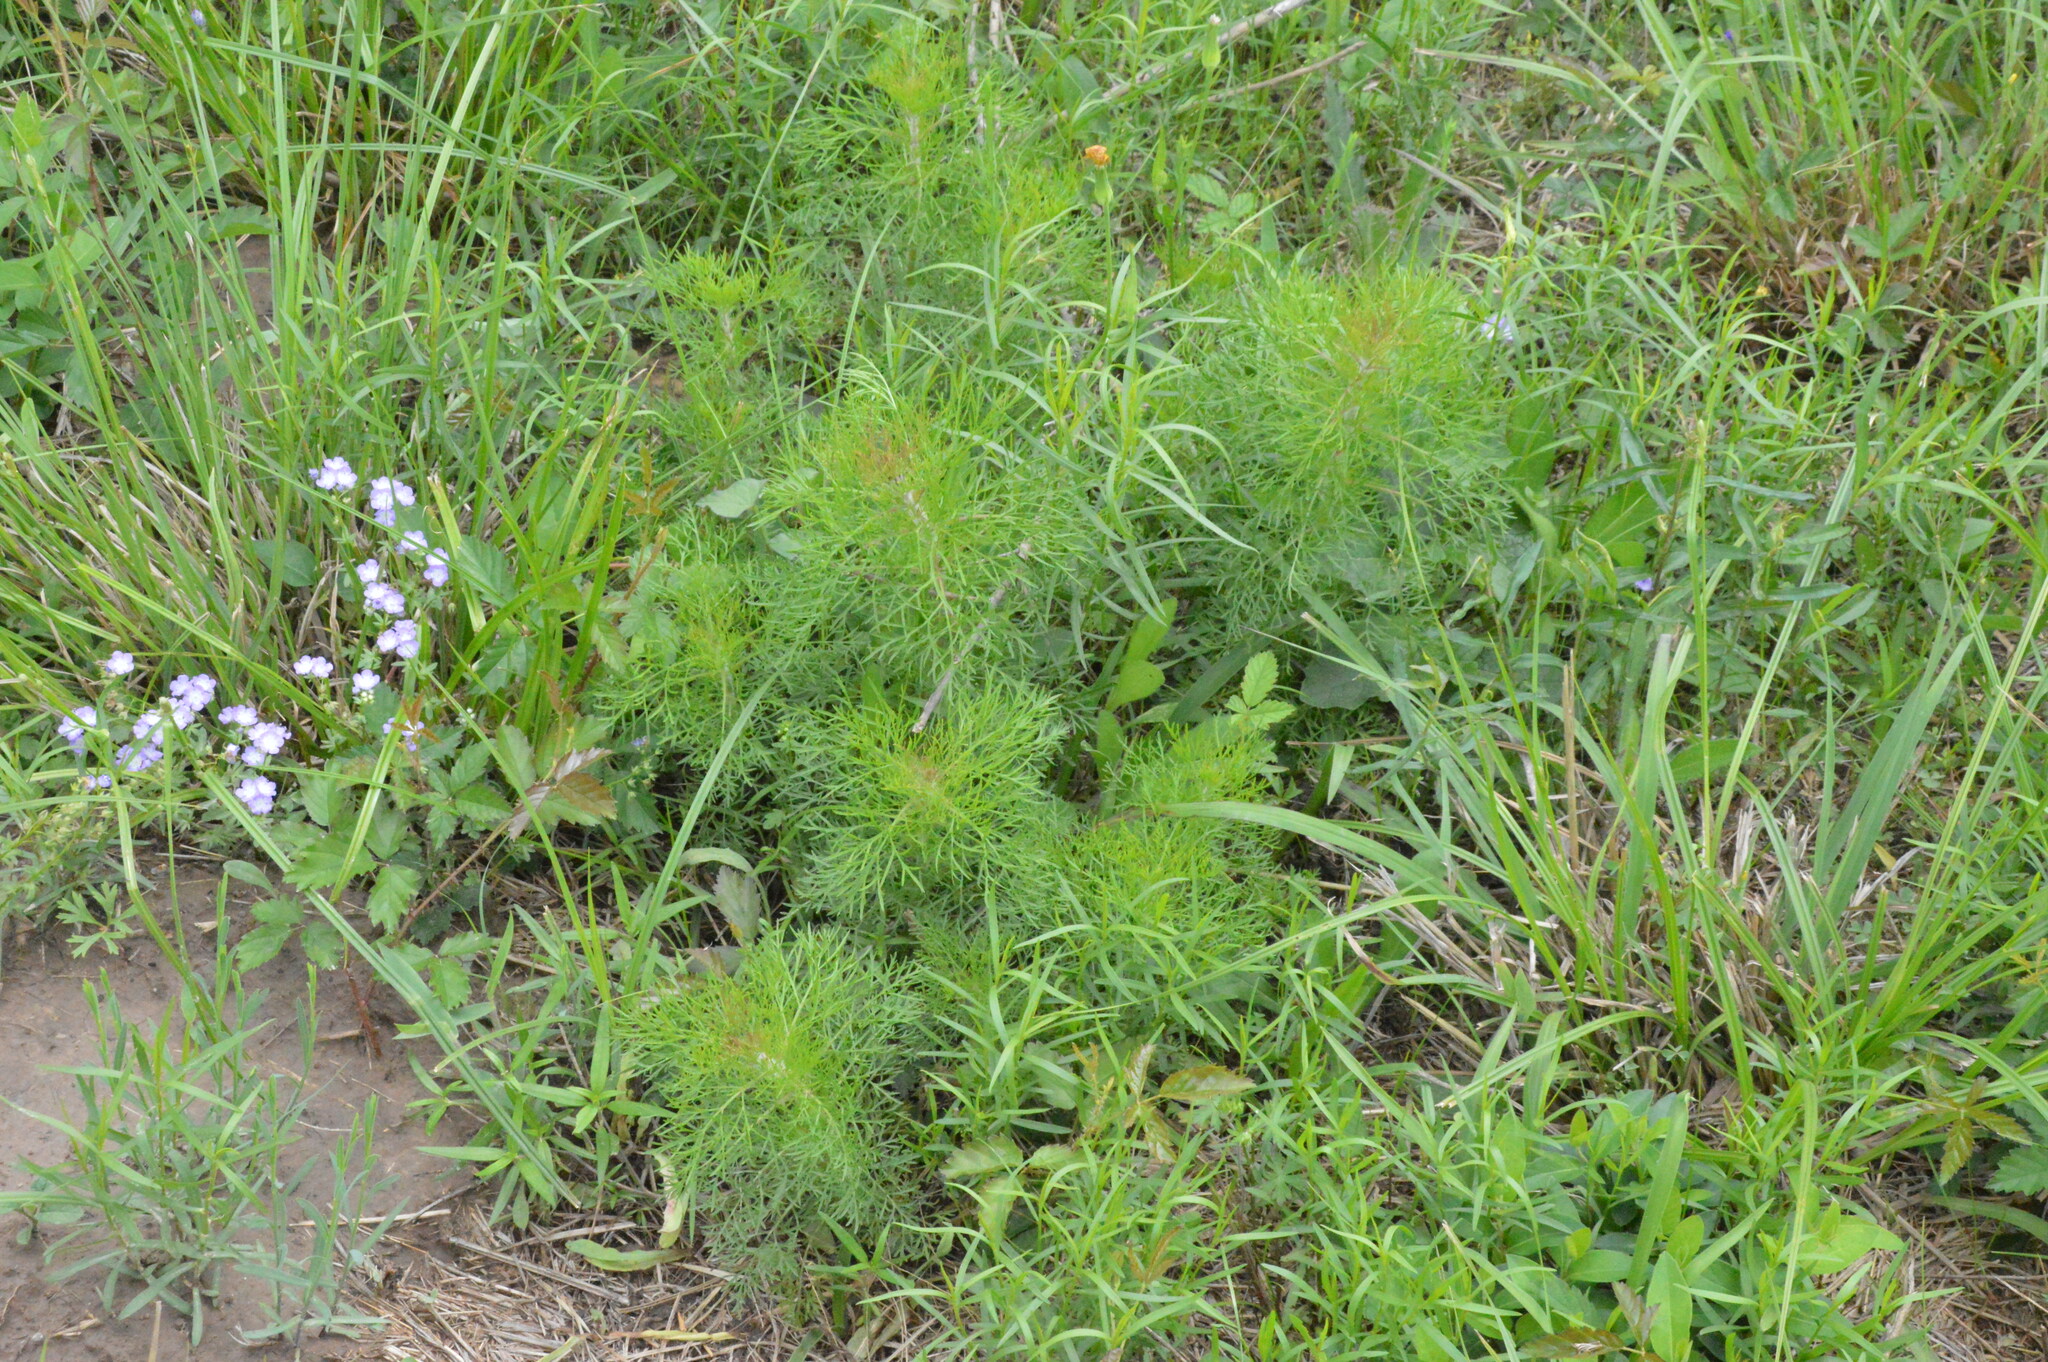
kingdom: Plantae
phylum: Tracheophyta
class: Magnoliopsida
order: Asterales
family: Asteraceae
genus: Eupatorium
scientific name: Eupatorium capillifolium
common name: Dog-fennel
